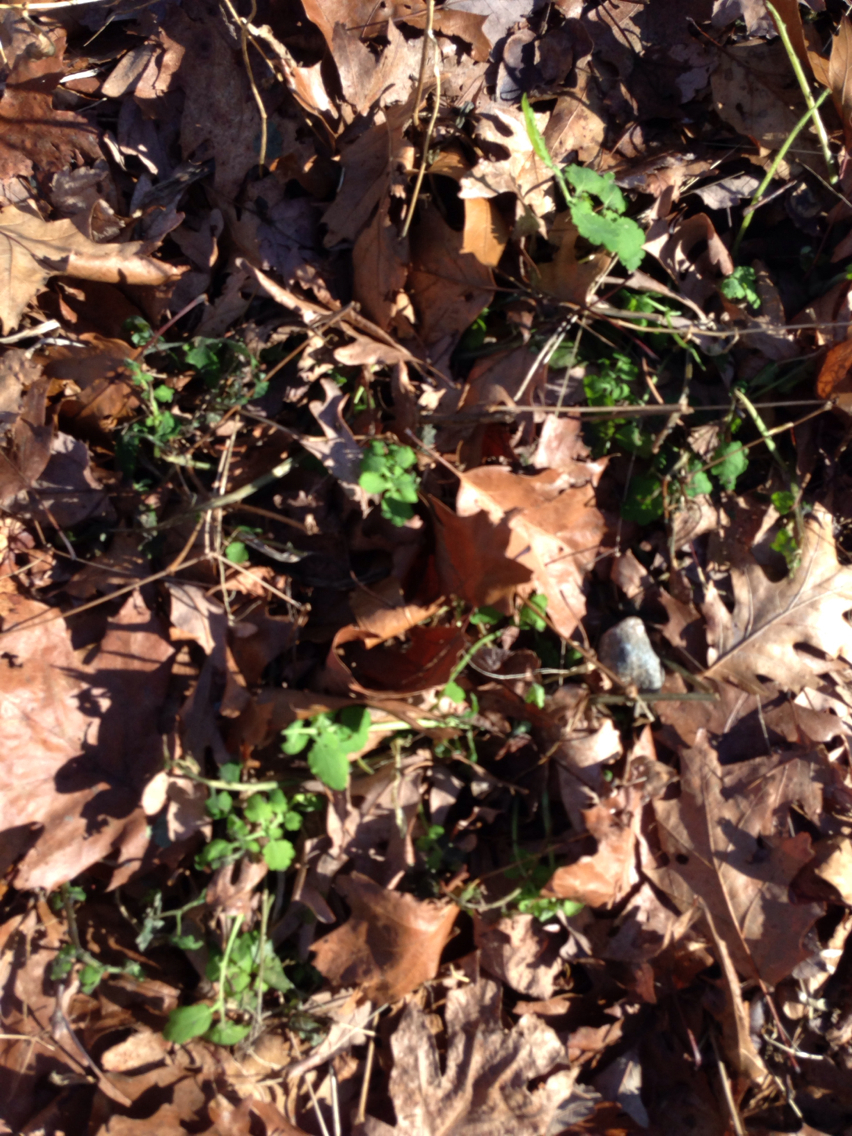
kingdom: Plantae
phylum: Tracheophyta
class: Magnoliopsida
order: Ranunculales
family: Papaveraceae
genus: Chelidonium
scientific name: Chelidonium majus
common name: Greater celandine
